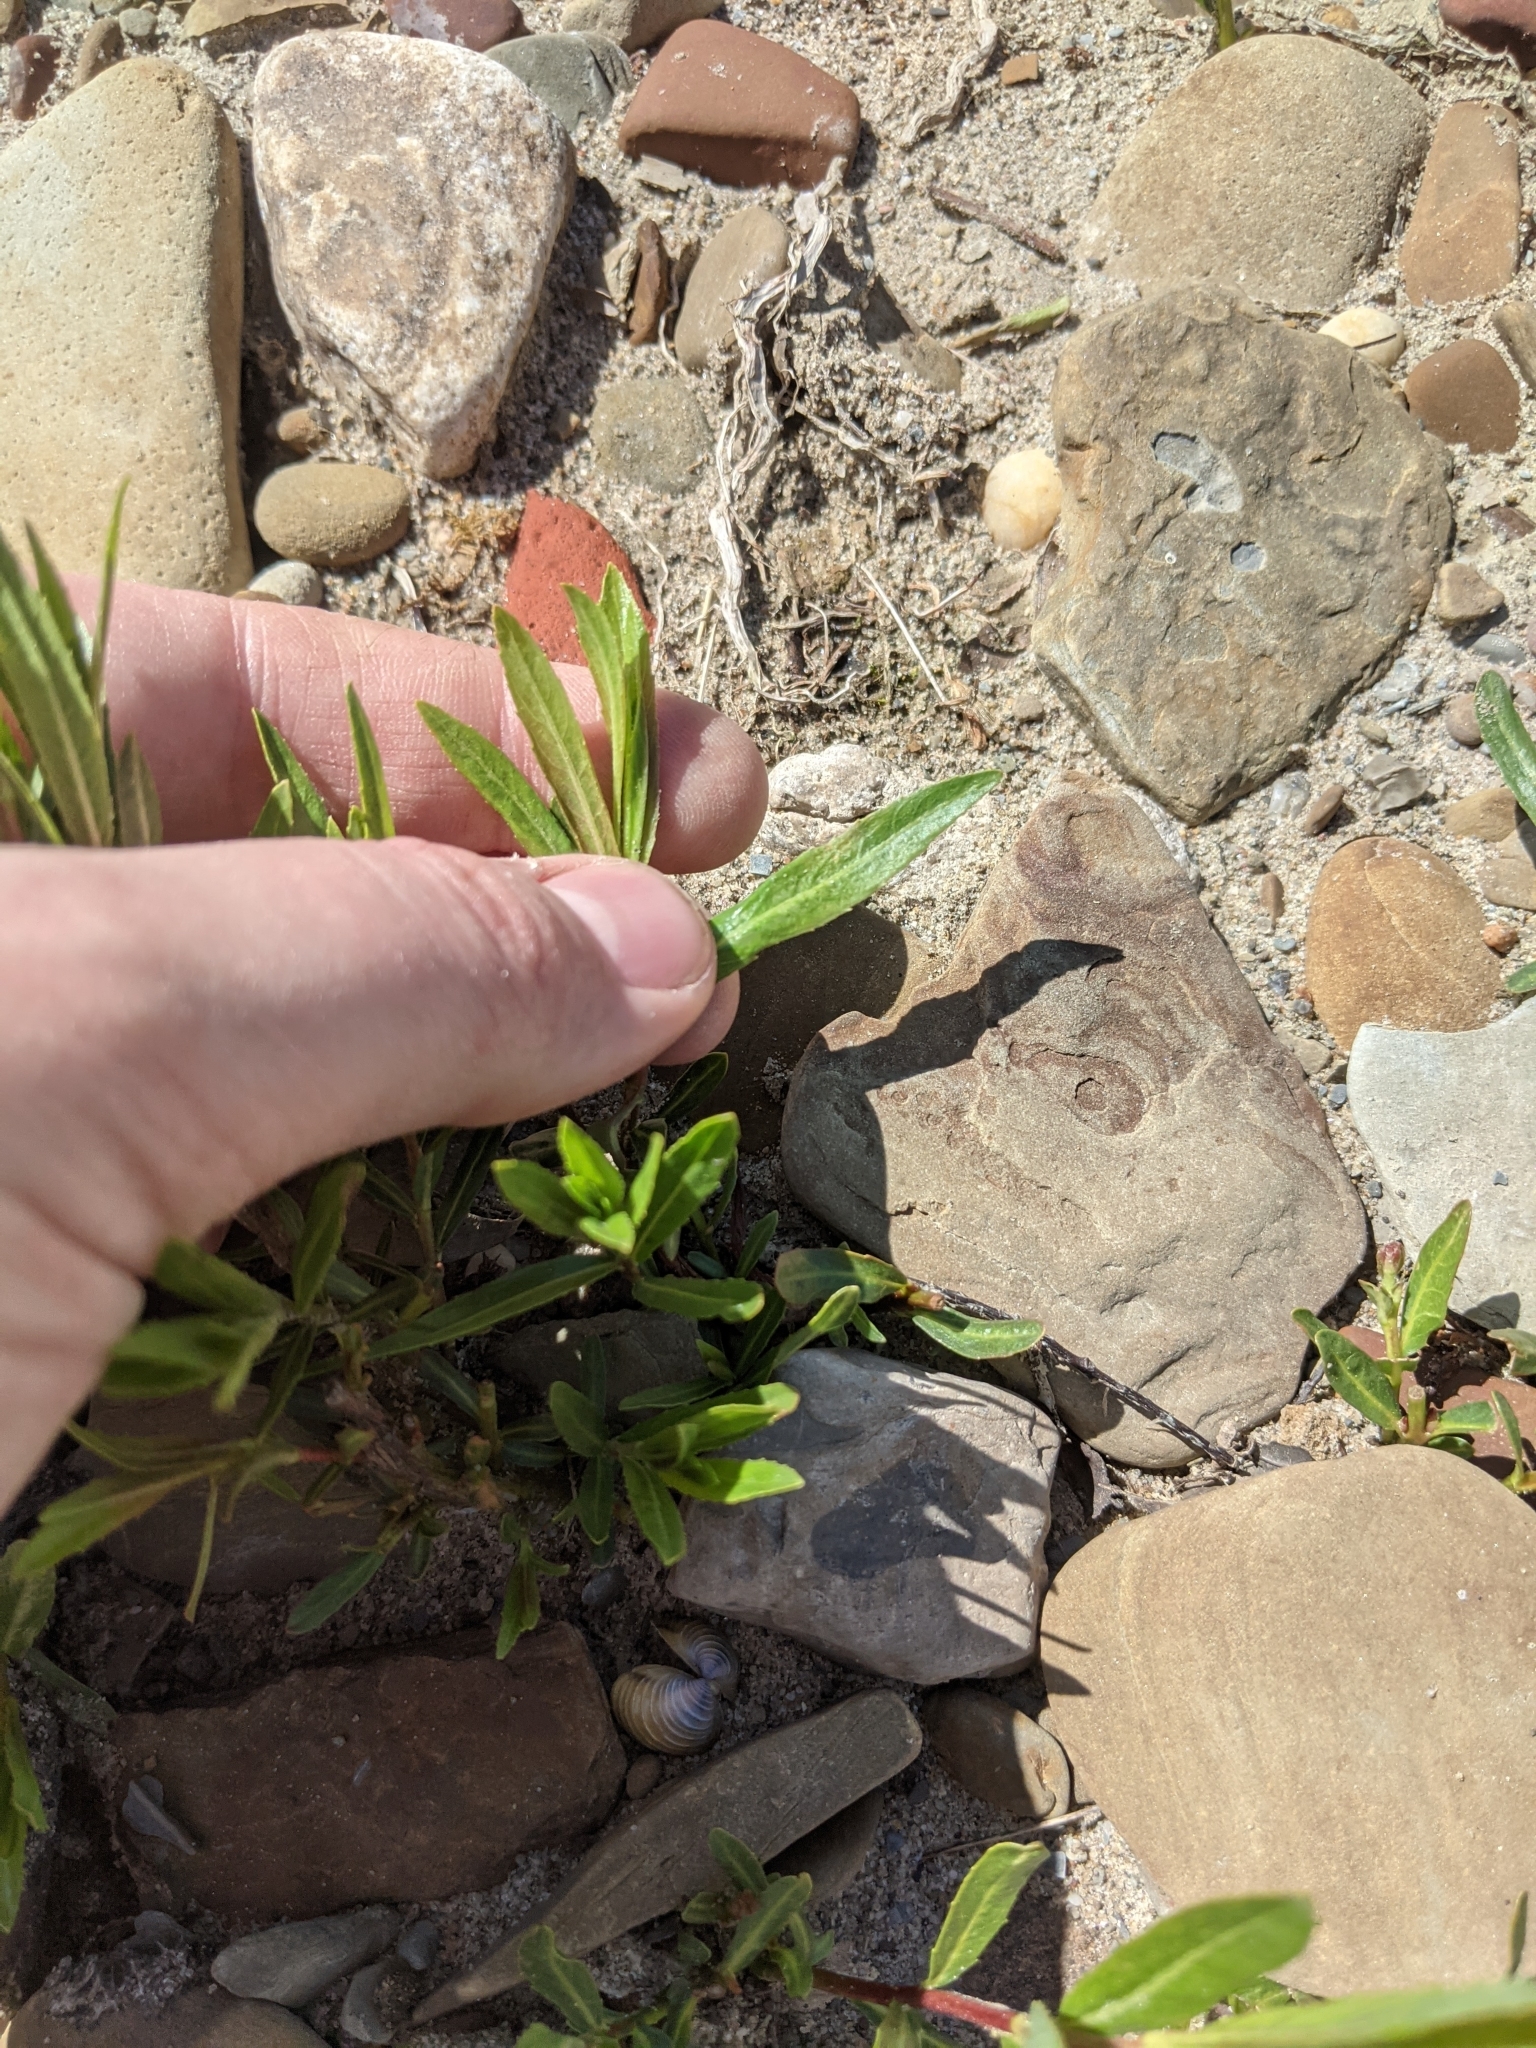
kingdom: Plantae
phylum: Tracheophyta
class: Magnoliopsida
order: Malpighiales
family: Salicaceae
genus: Salix
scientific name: Salix interior
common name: Sandbar willow
